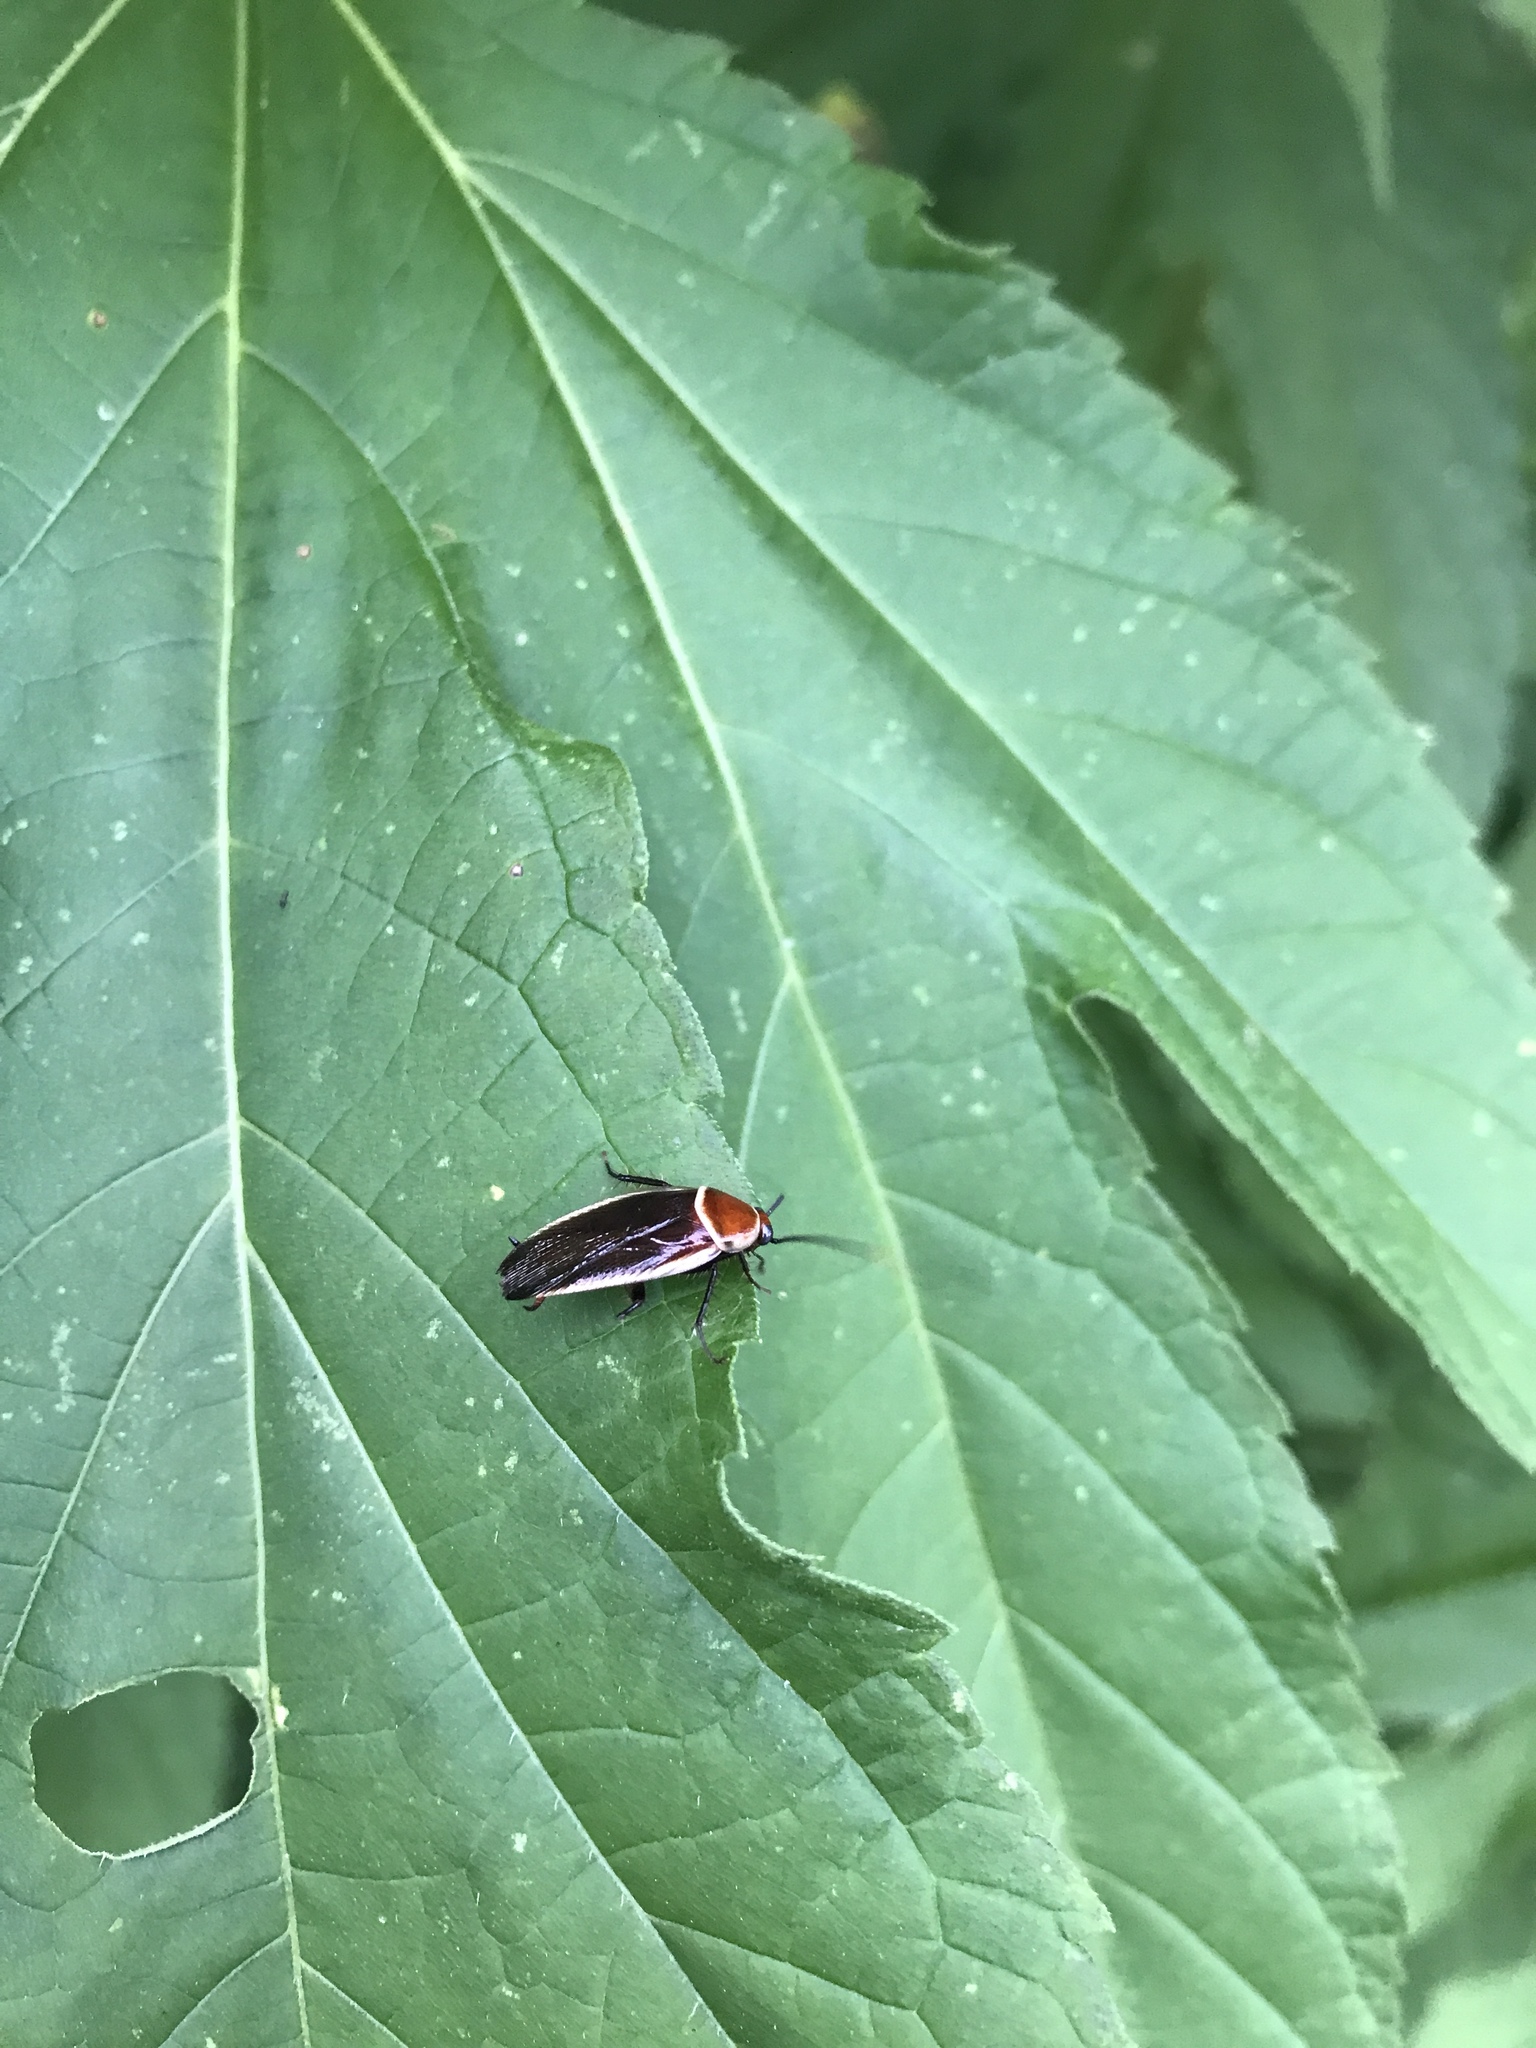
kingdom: Animalia
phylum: Arthropoda
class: Insecta
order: Blattodea
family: Ectobiidae
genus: Pseudomops
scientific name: Pseudomops septentrionalis
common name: Pale-bordered field cockroach
